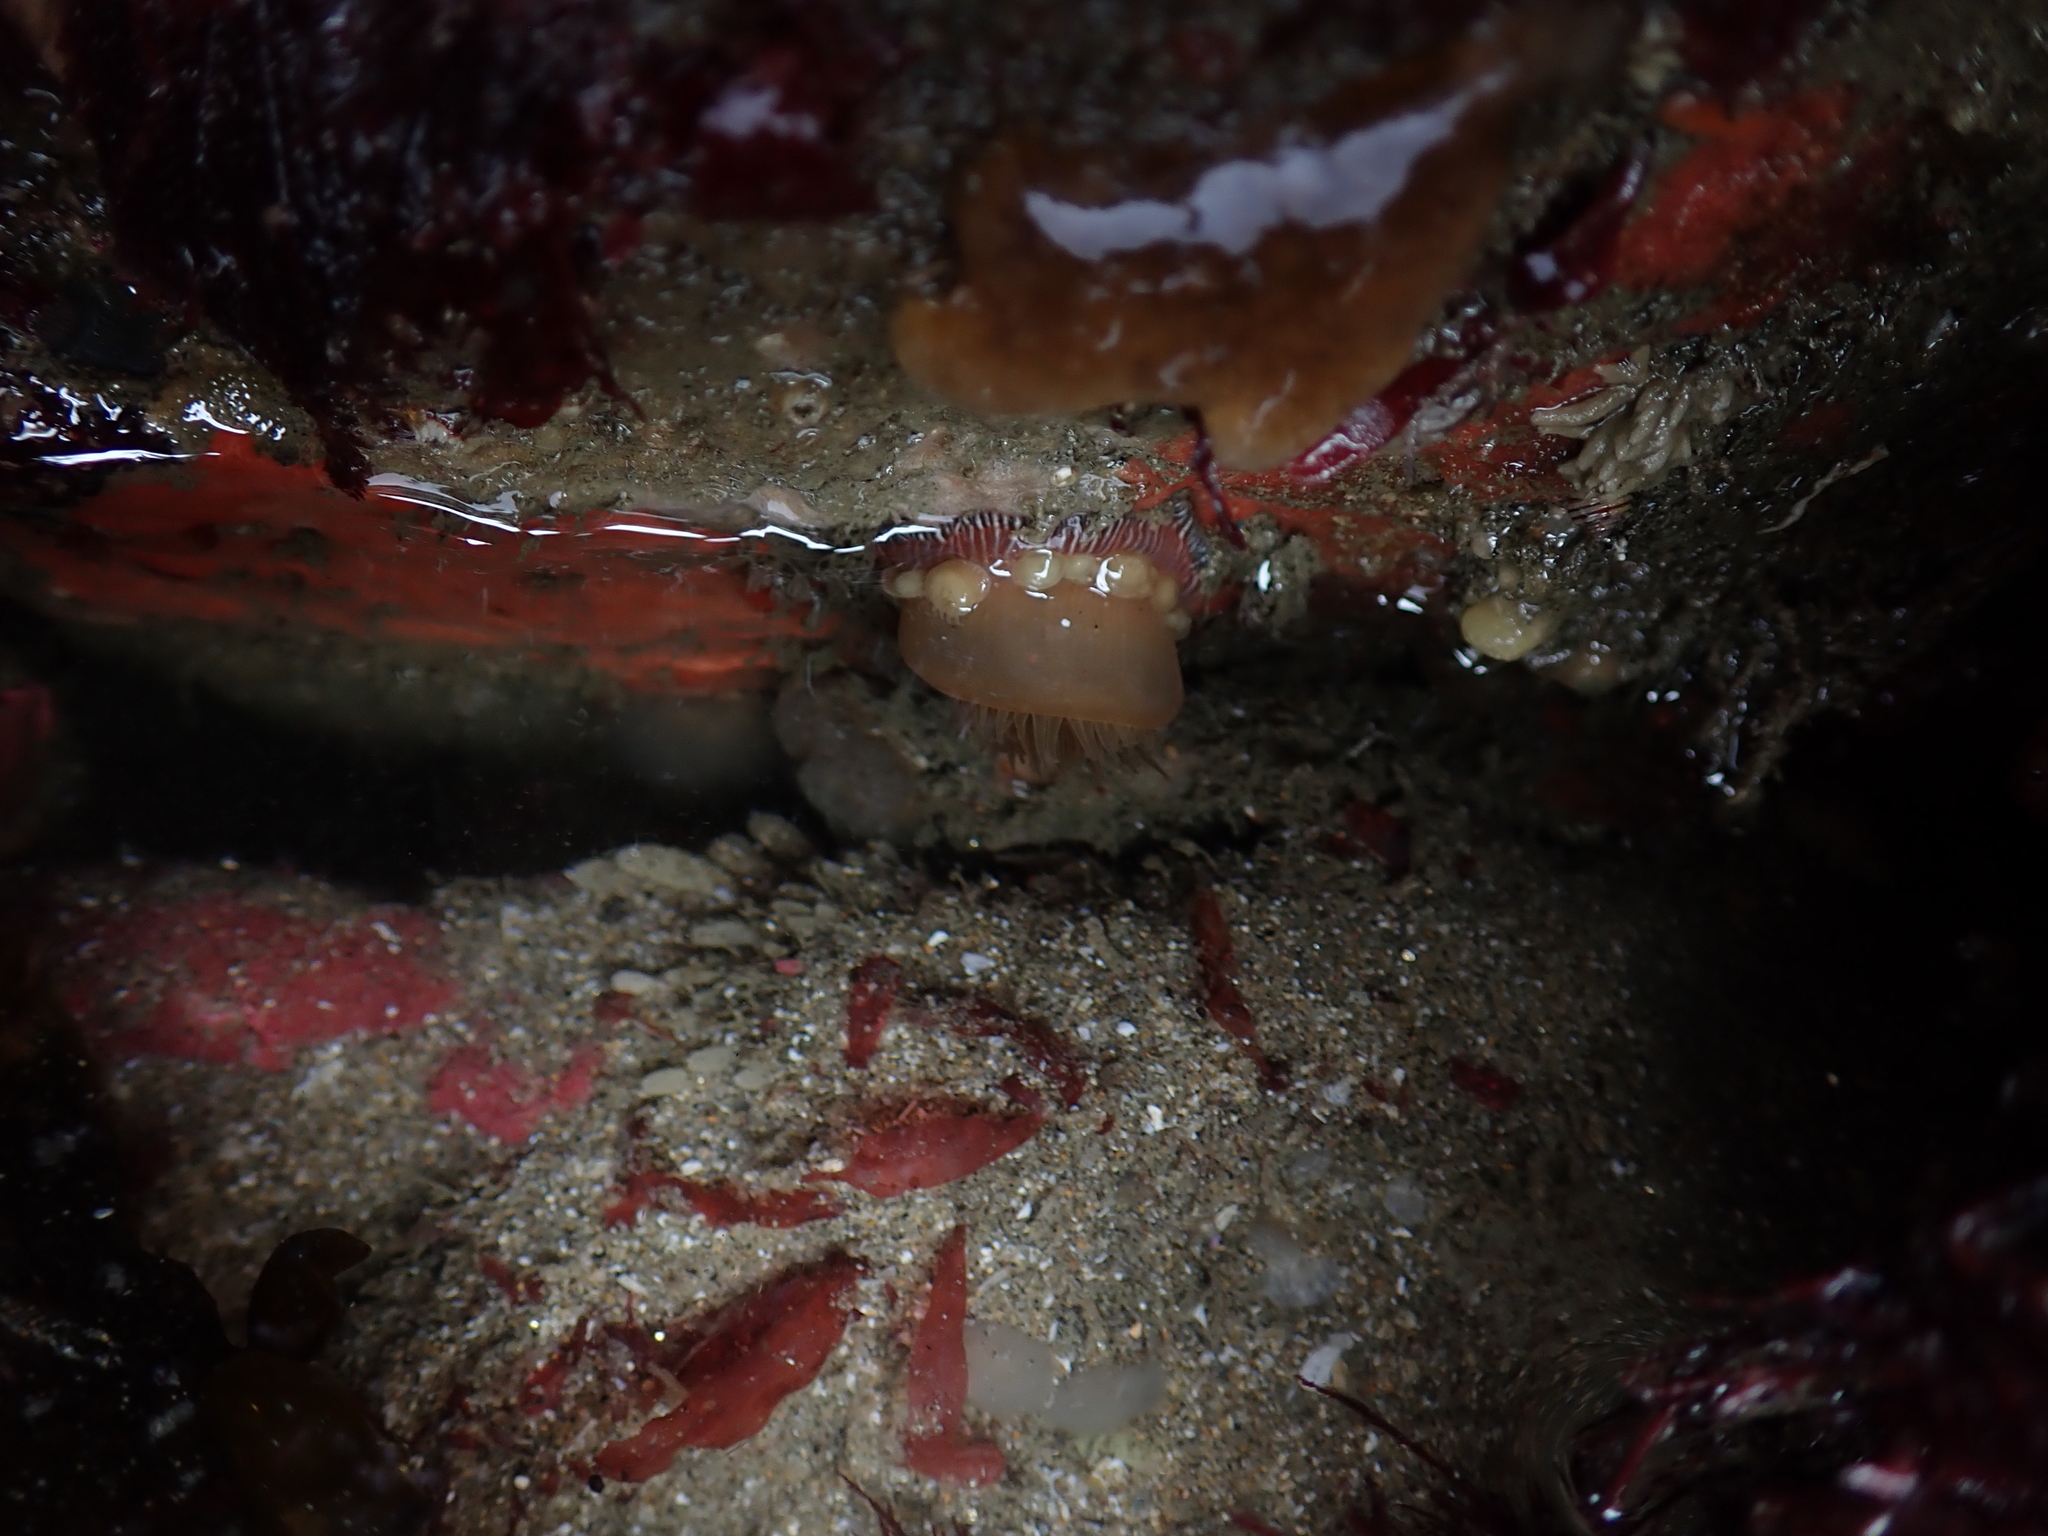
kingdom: Animalia
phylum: Cnidaria
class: Anthozoa
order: Actiniaria
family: Actiniidae
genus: Epiactis
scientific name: Epiactis prolifera
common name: Brooding anemone
